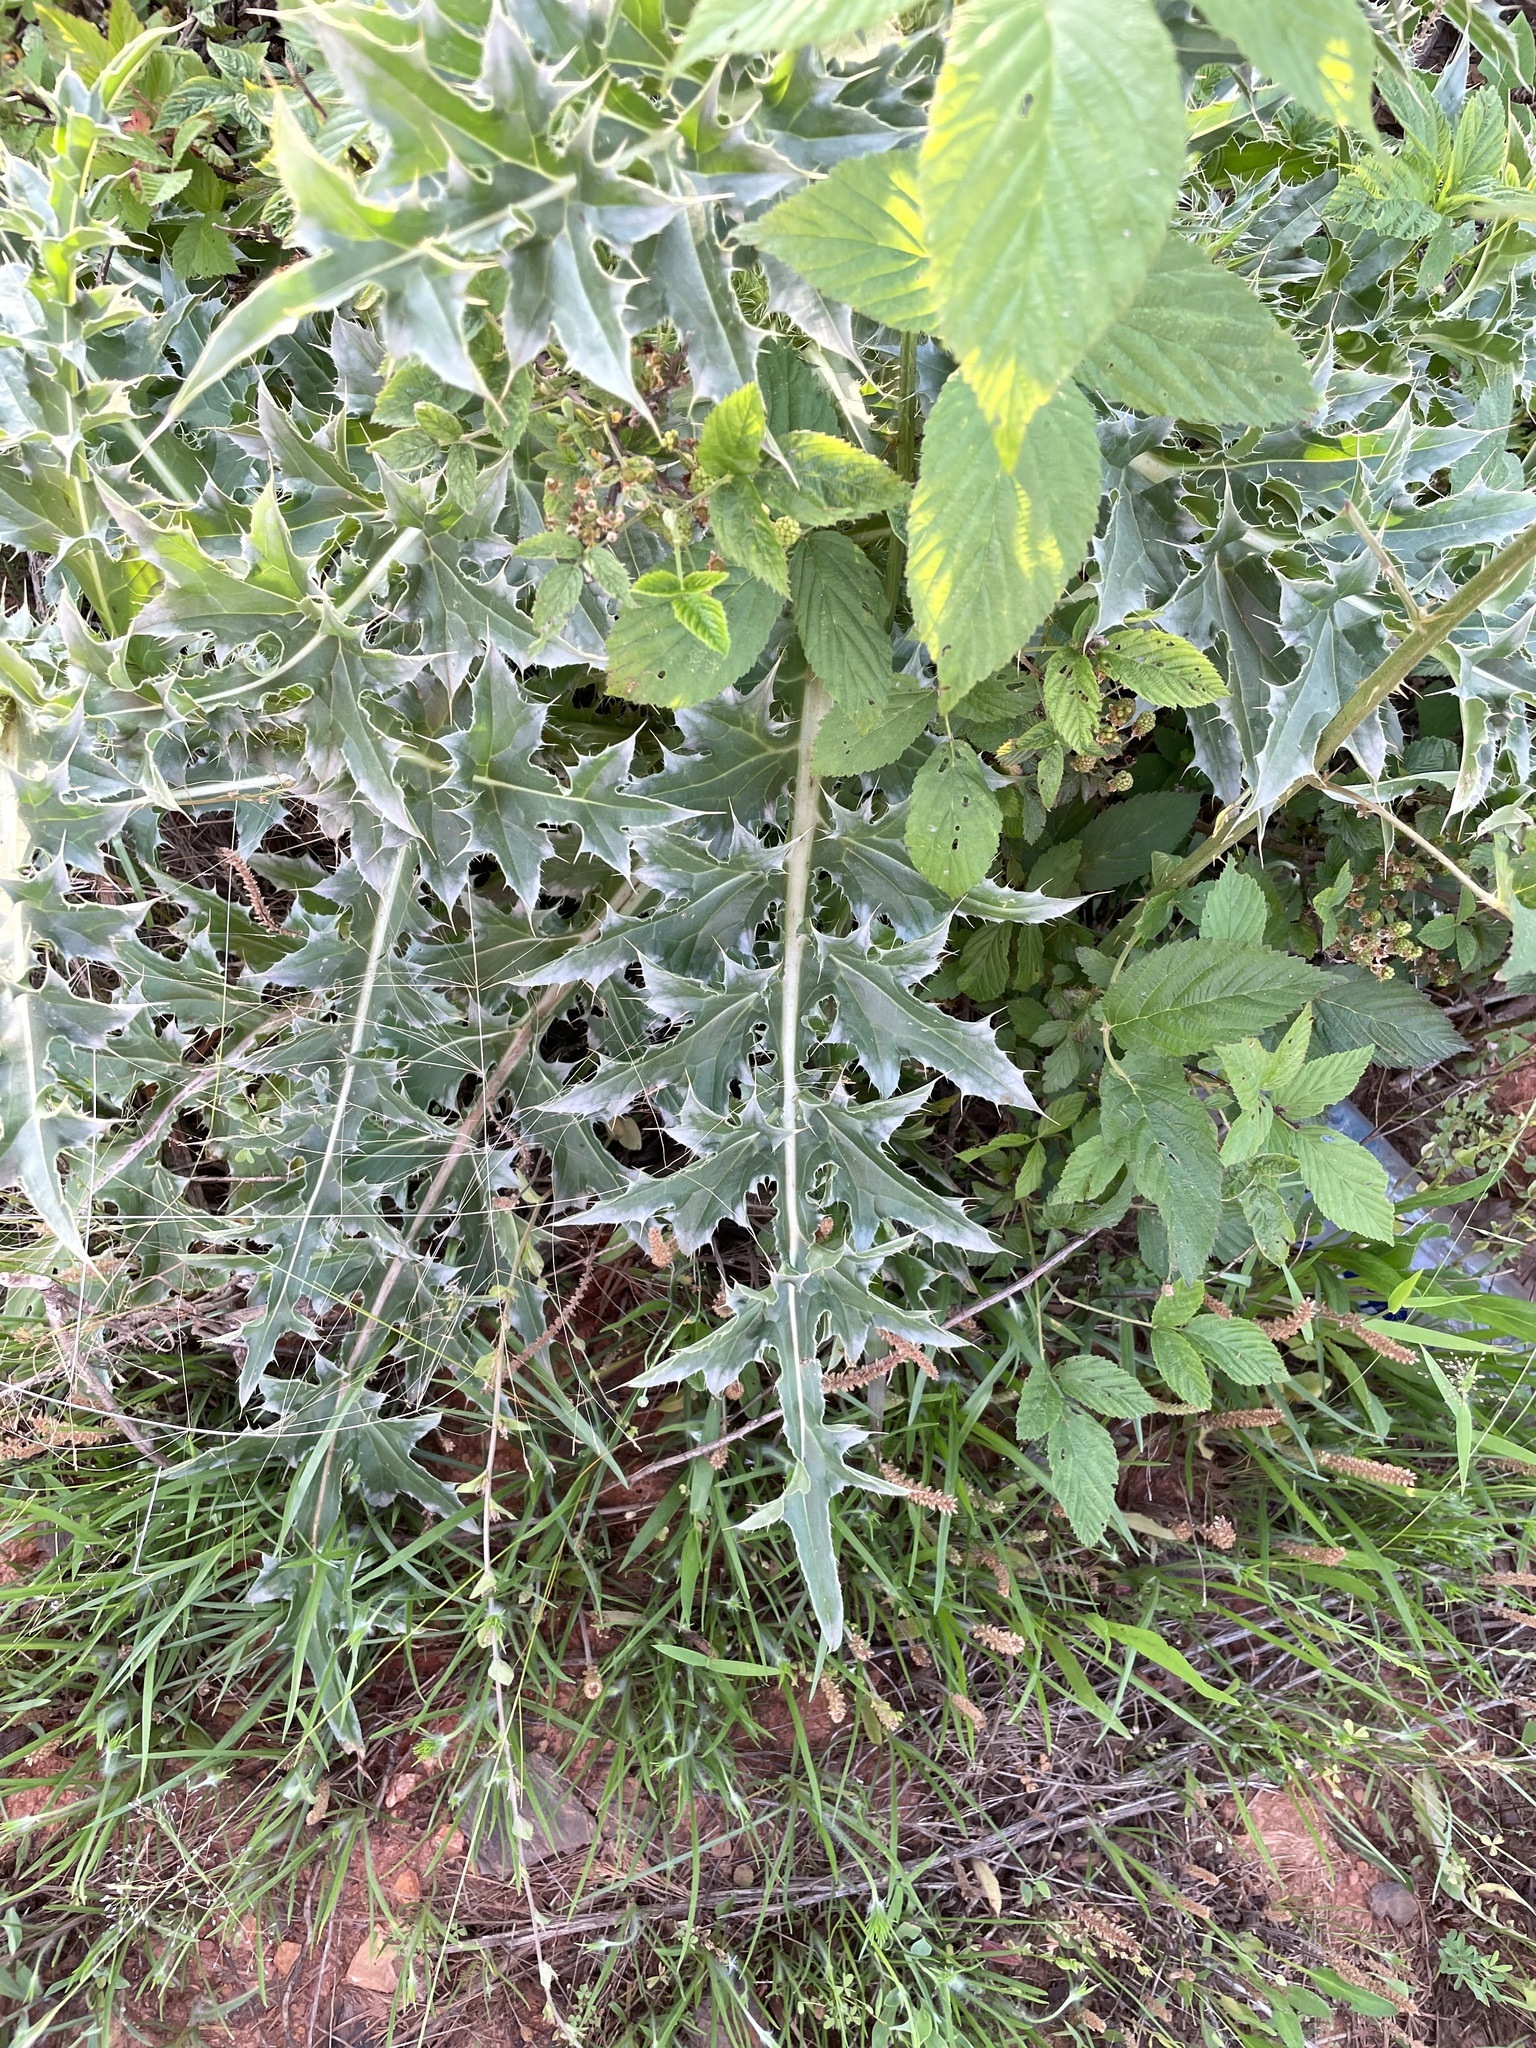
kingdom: Plantae
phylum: Tracheophyta
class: Magnoliopsida
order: Asterales
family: Asteraceae
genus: Carduus
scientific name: Carduus nutans
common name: Musk thistle
